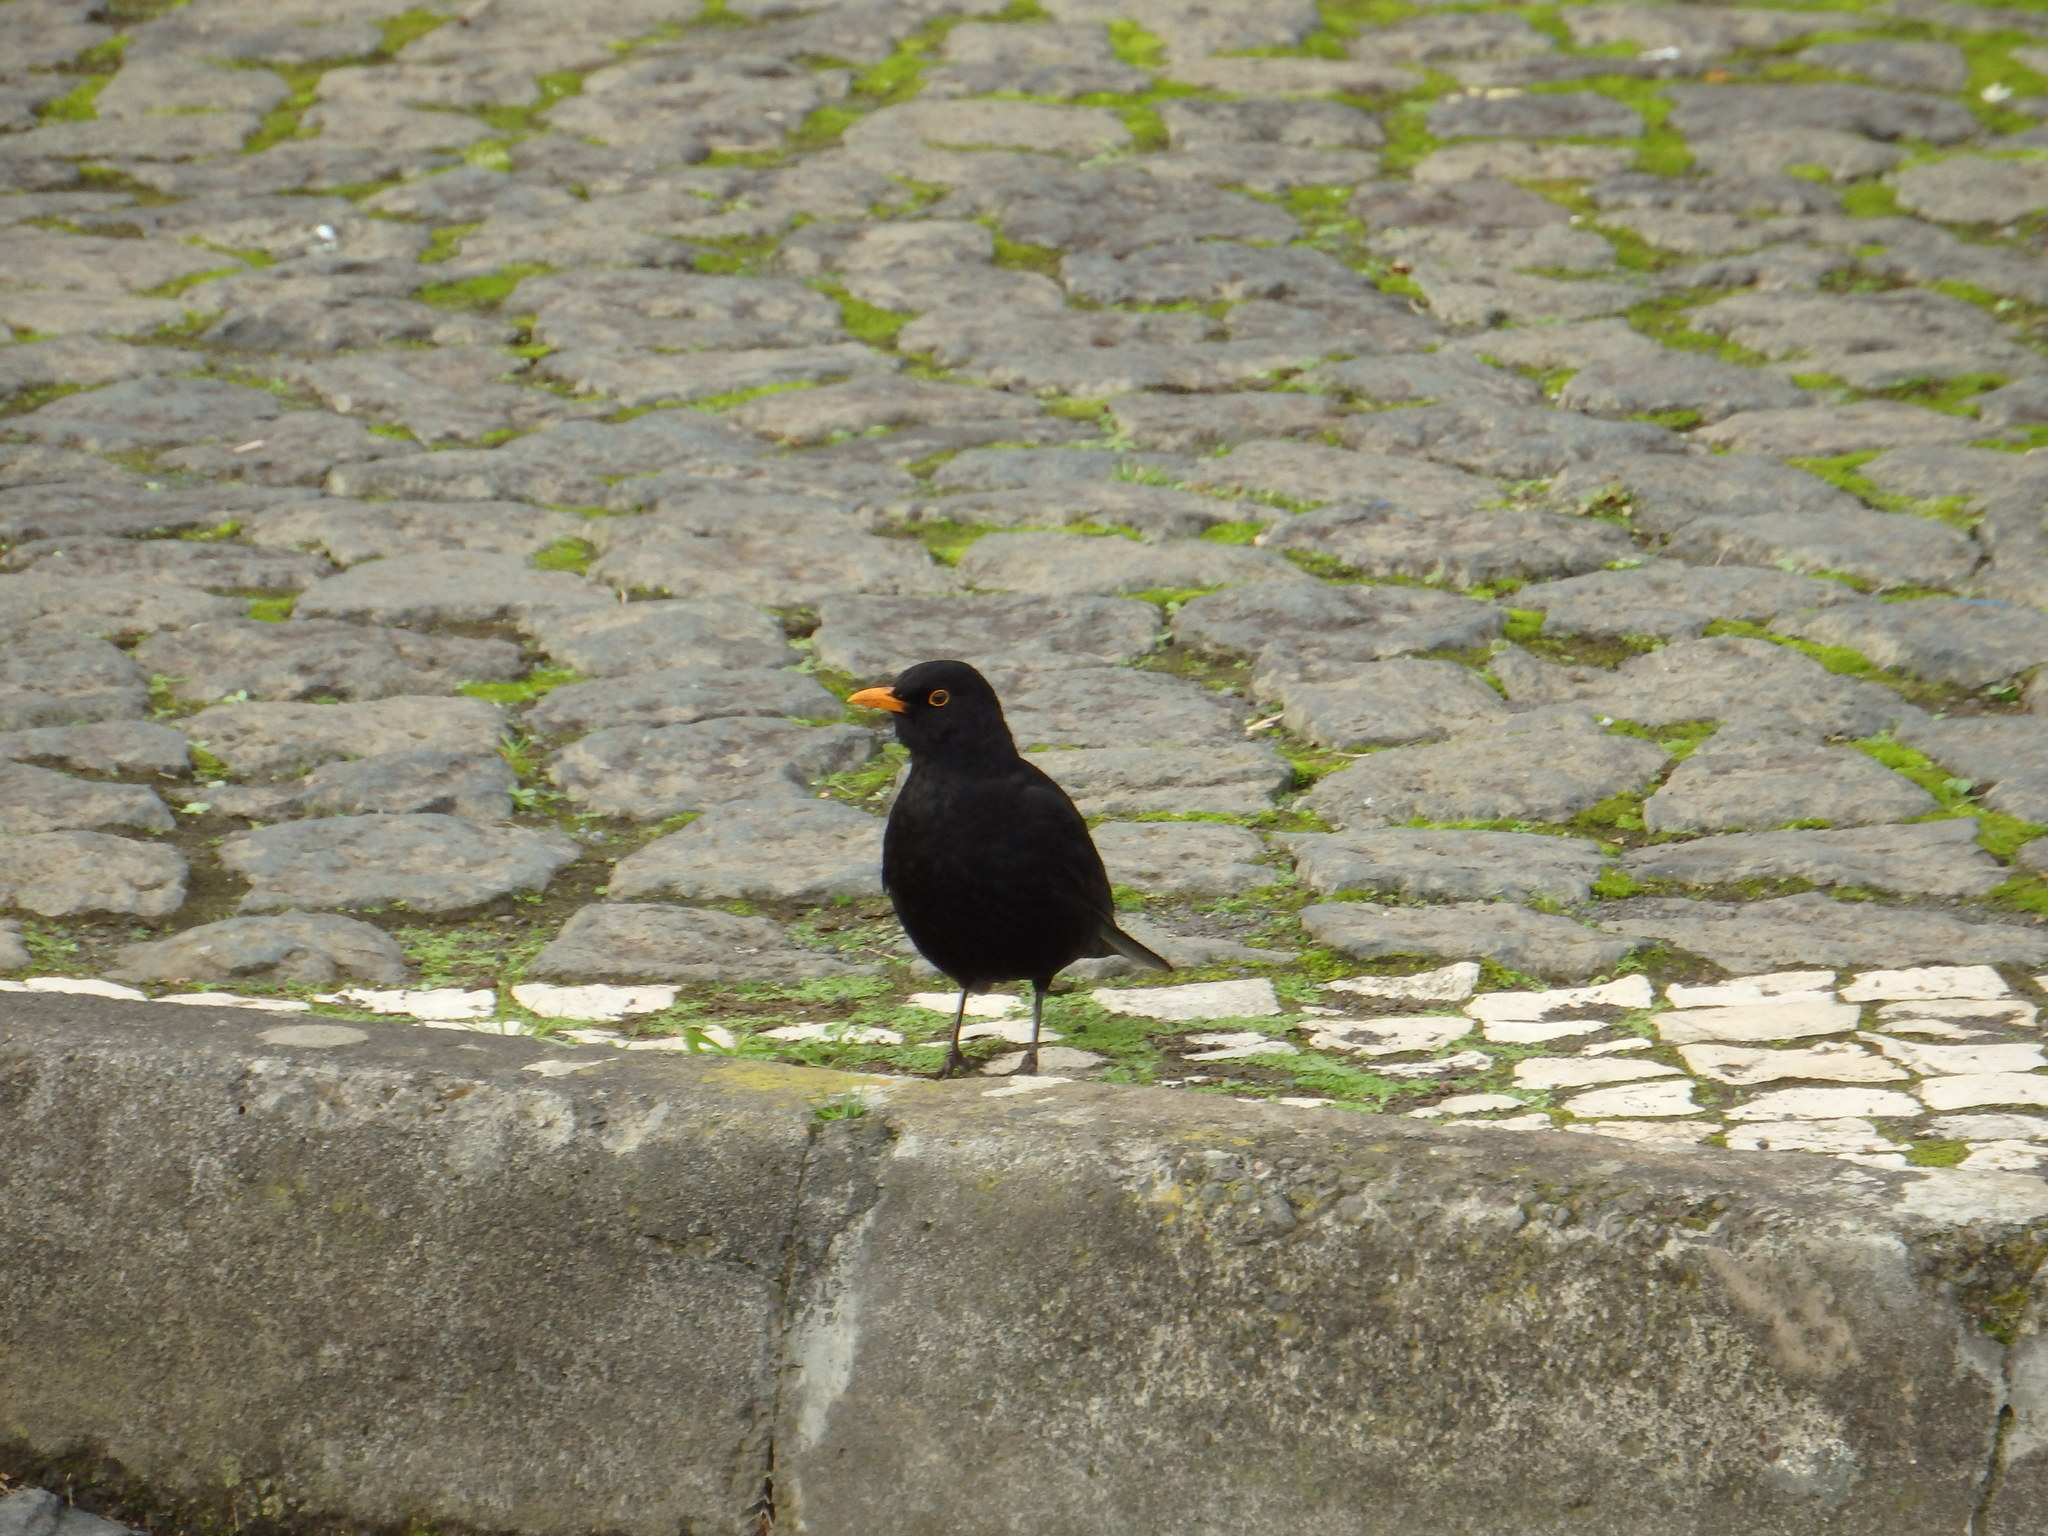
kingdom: Animalia
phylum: Chordata
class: Aves
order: Passeriformes
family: Turdidae
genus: Turdus
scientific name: Turdus merula
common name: Common blackbird
